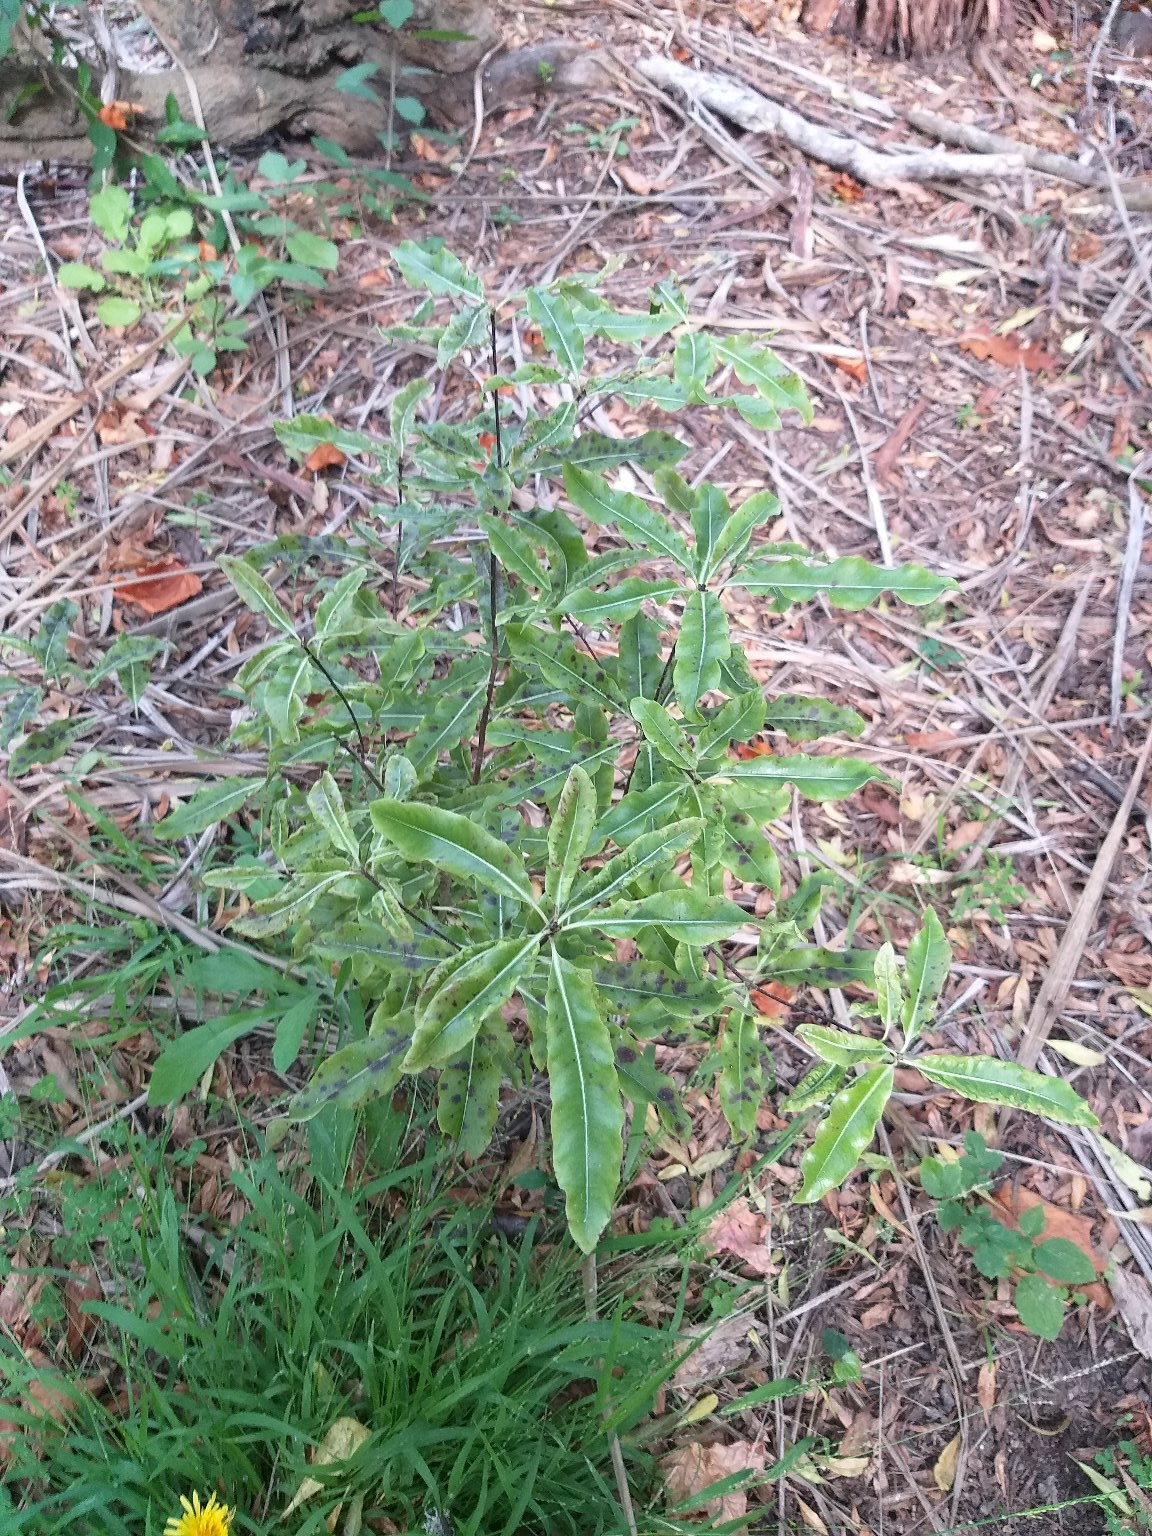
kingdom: Plantae
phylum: Tracheophyta
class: Magnoliopsida
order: Apiales
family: Pittosporaceae
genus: Pittosporum
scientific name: Pittosporum eugenioides
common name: Lemonwood
